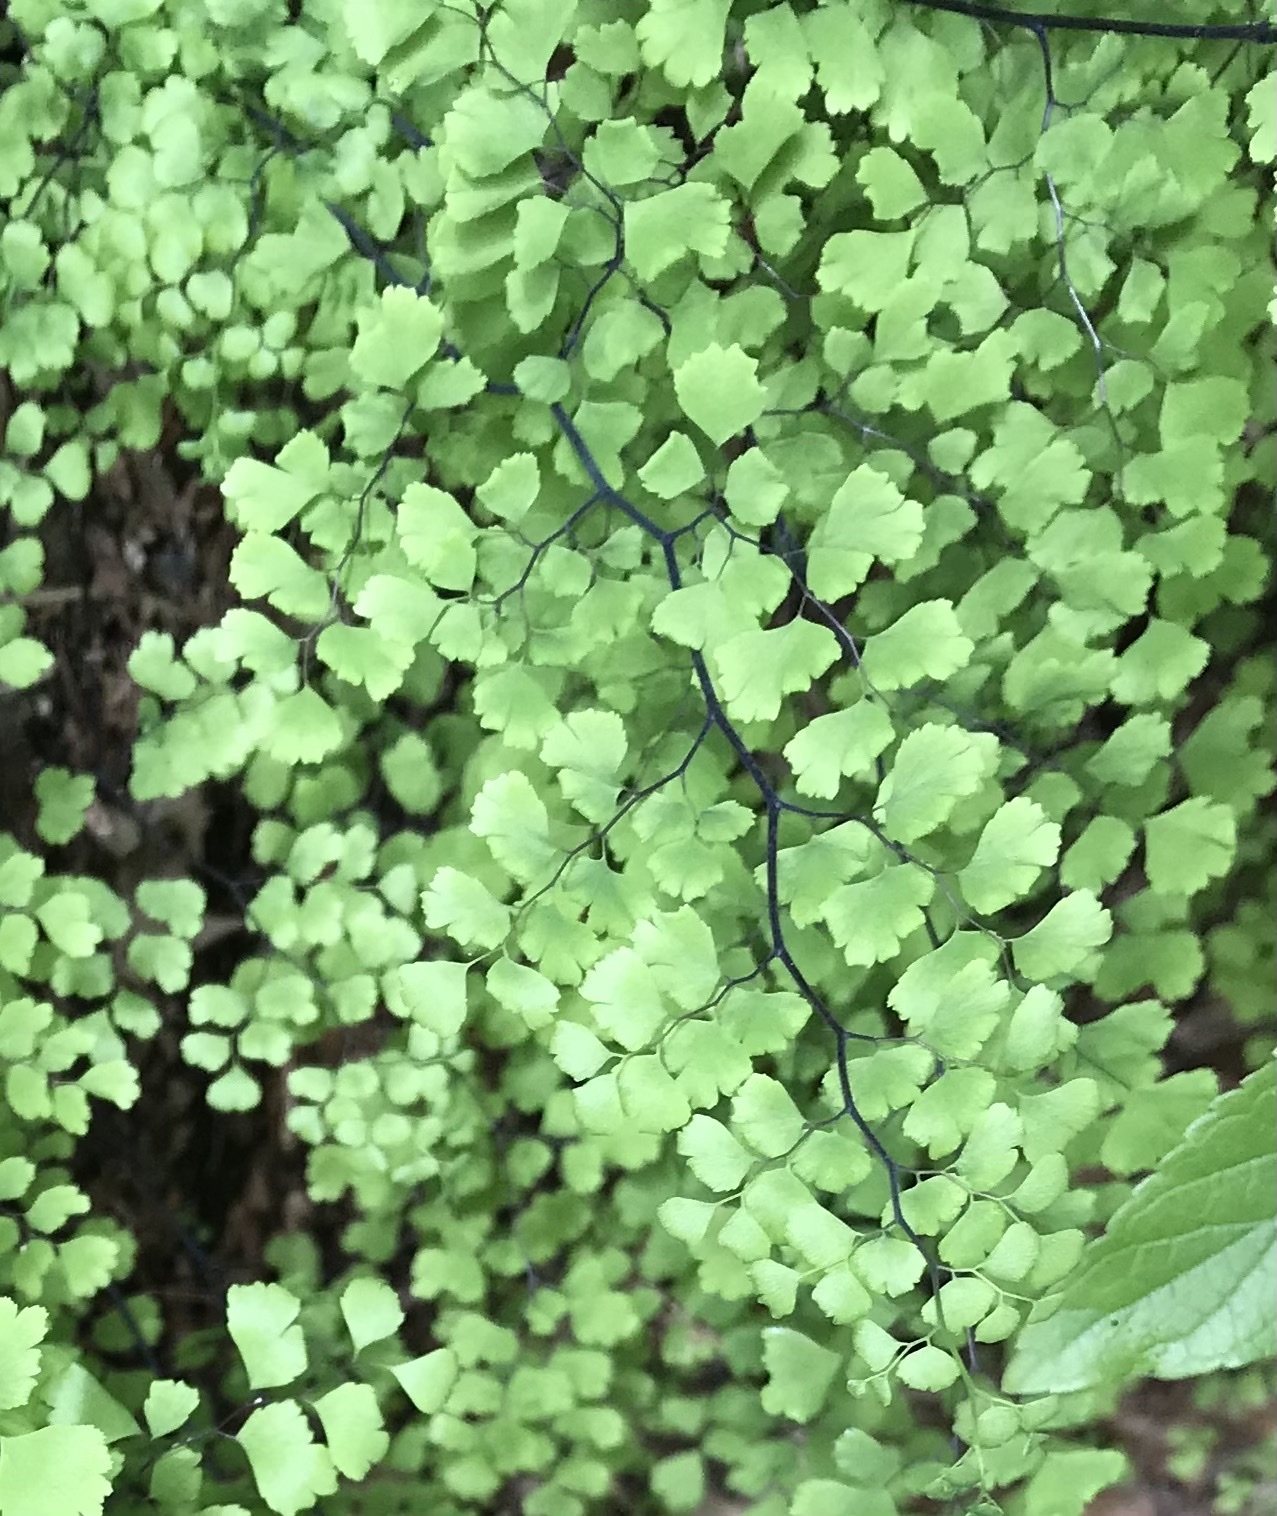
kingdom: Plantae
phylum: Tracheophyta
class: Polypodiopsida
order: Polypodiales
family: Pteridaceae
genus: Adiantum
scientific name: Adiantum capillus-veneris
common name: Maidenhair fern
